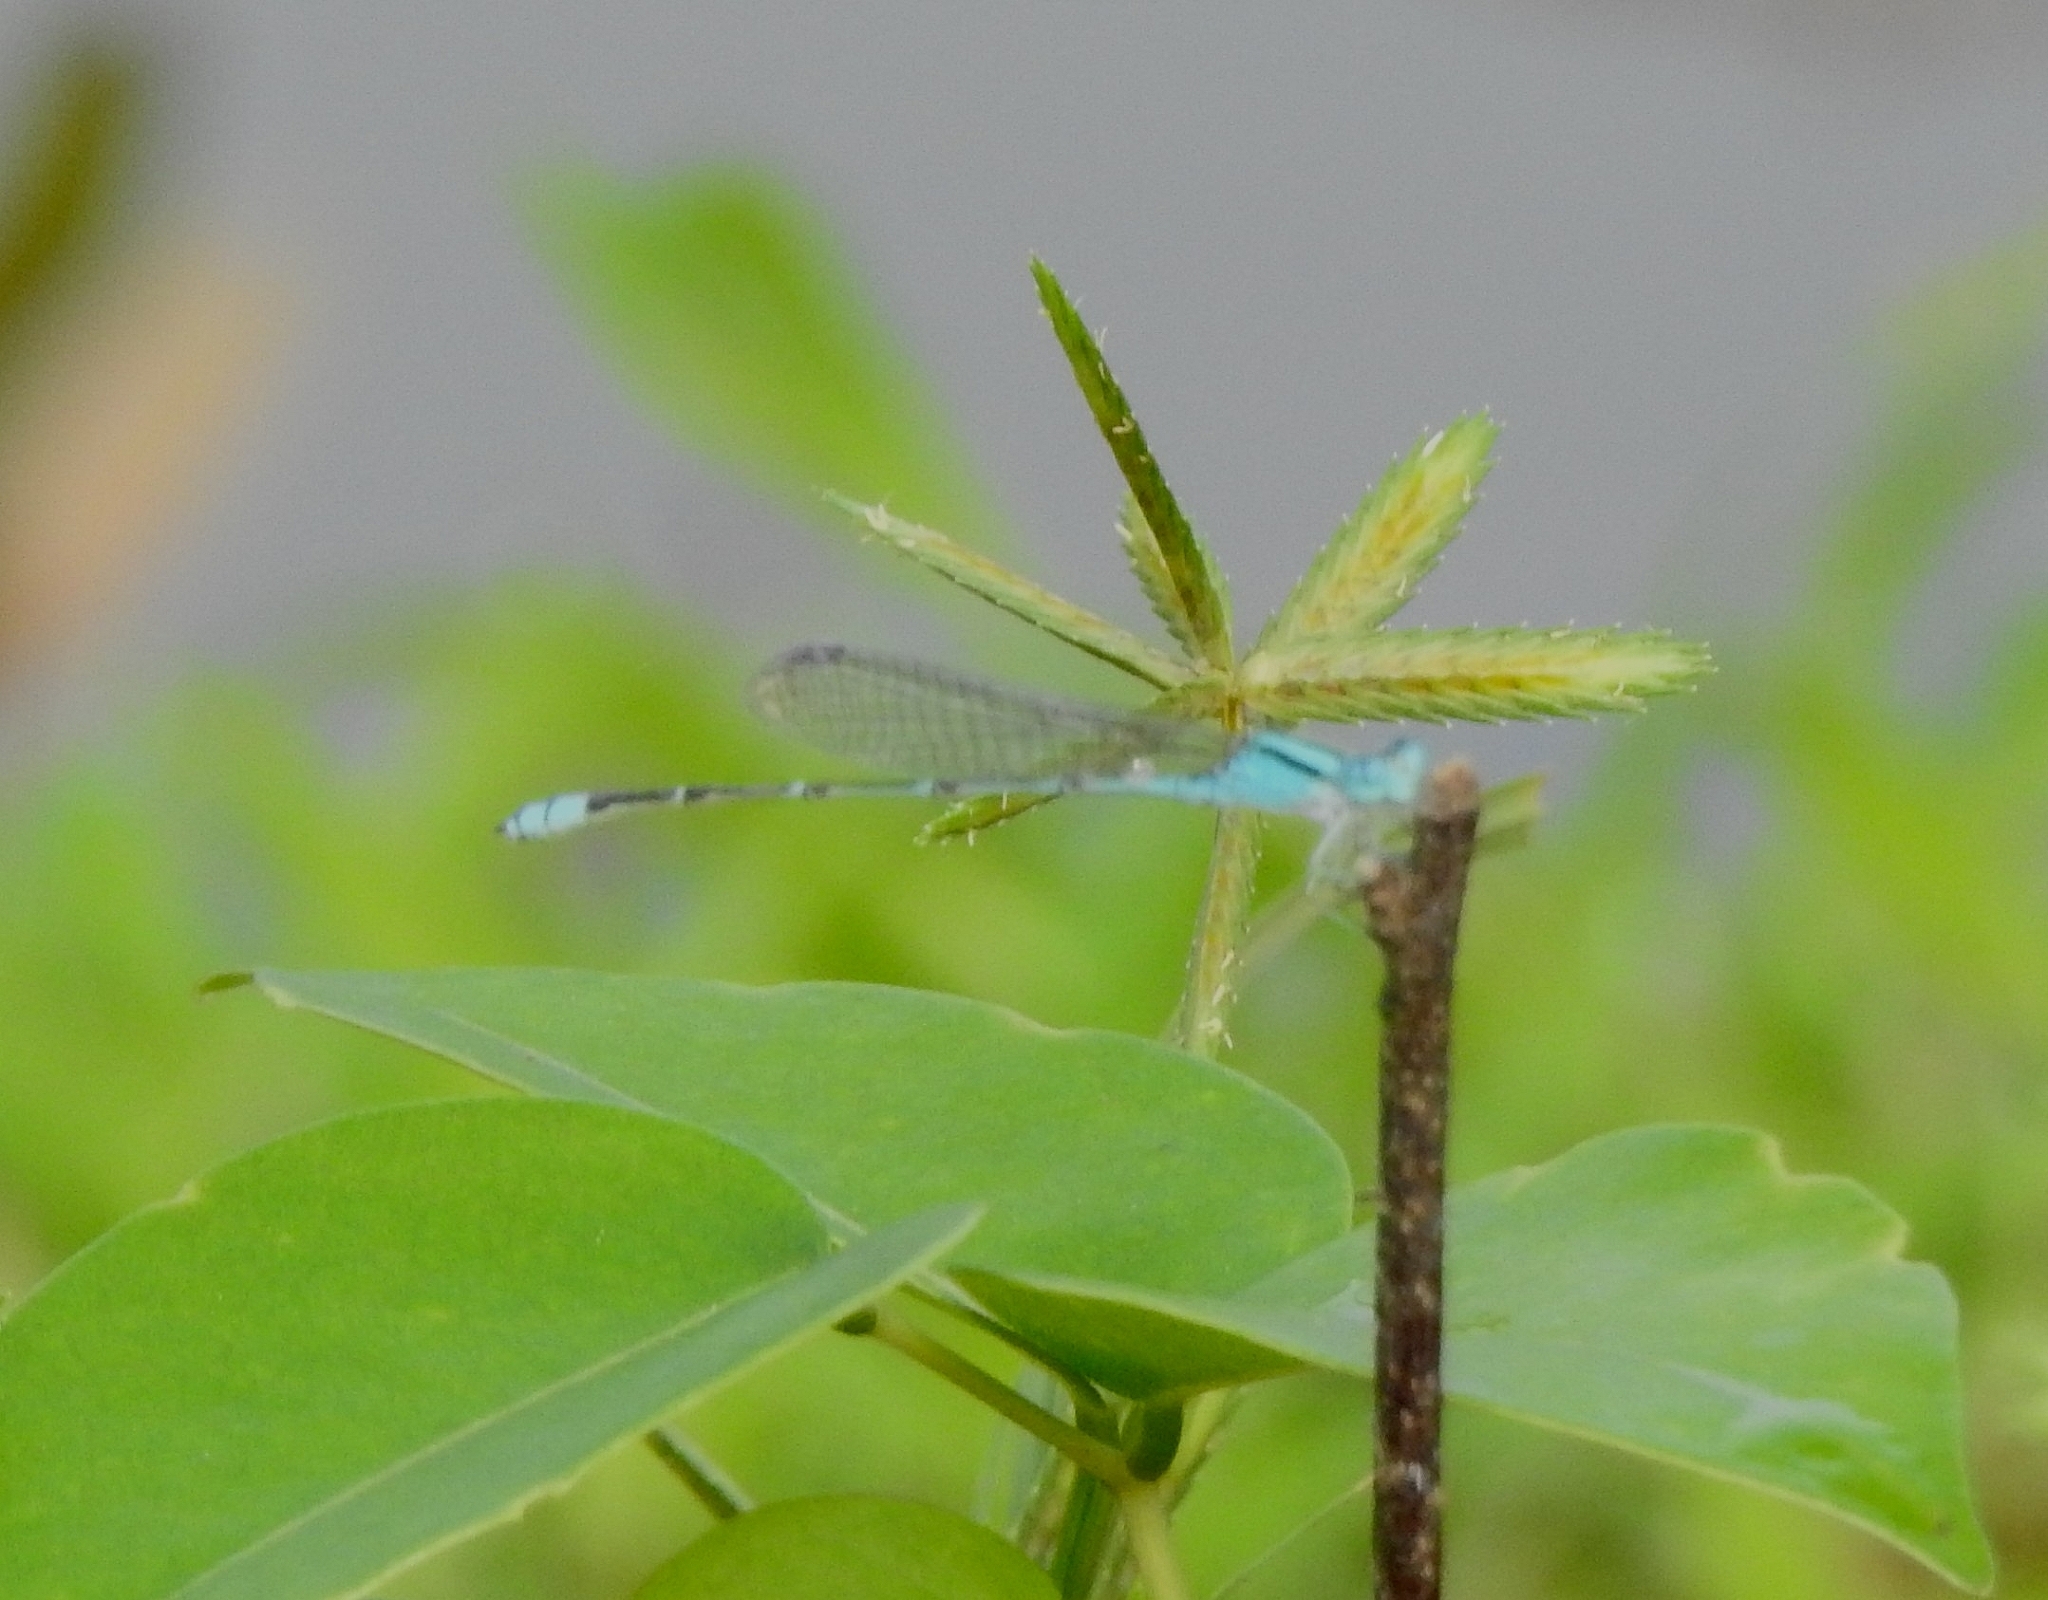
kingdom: Animalia
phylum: Arthropoda
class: Insecta
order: Odonata
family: Coenagrionidae
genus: Pseudagrion
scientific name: Pseudagrion microcephalum
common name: Blue riverdamsel
